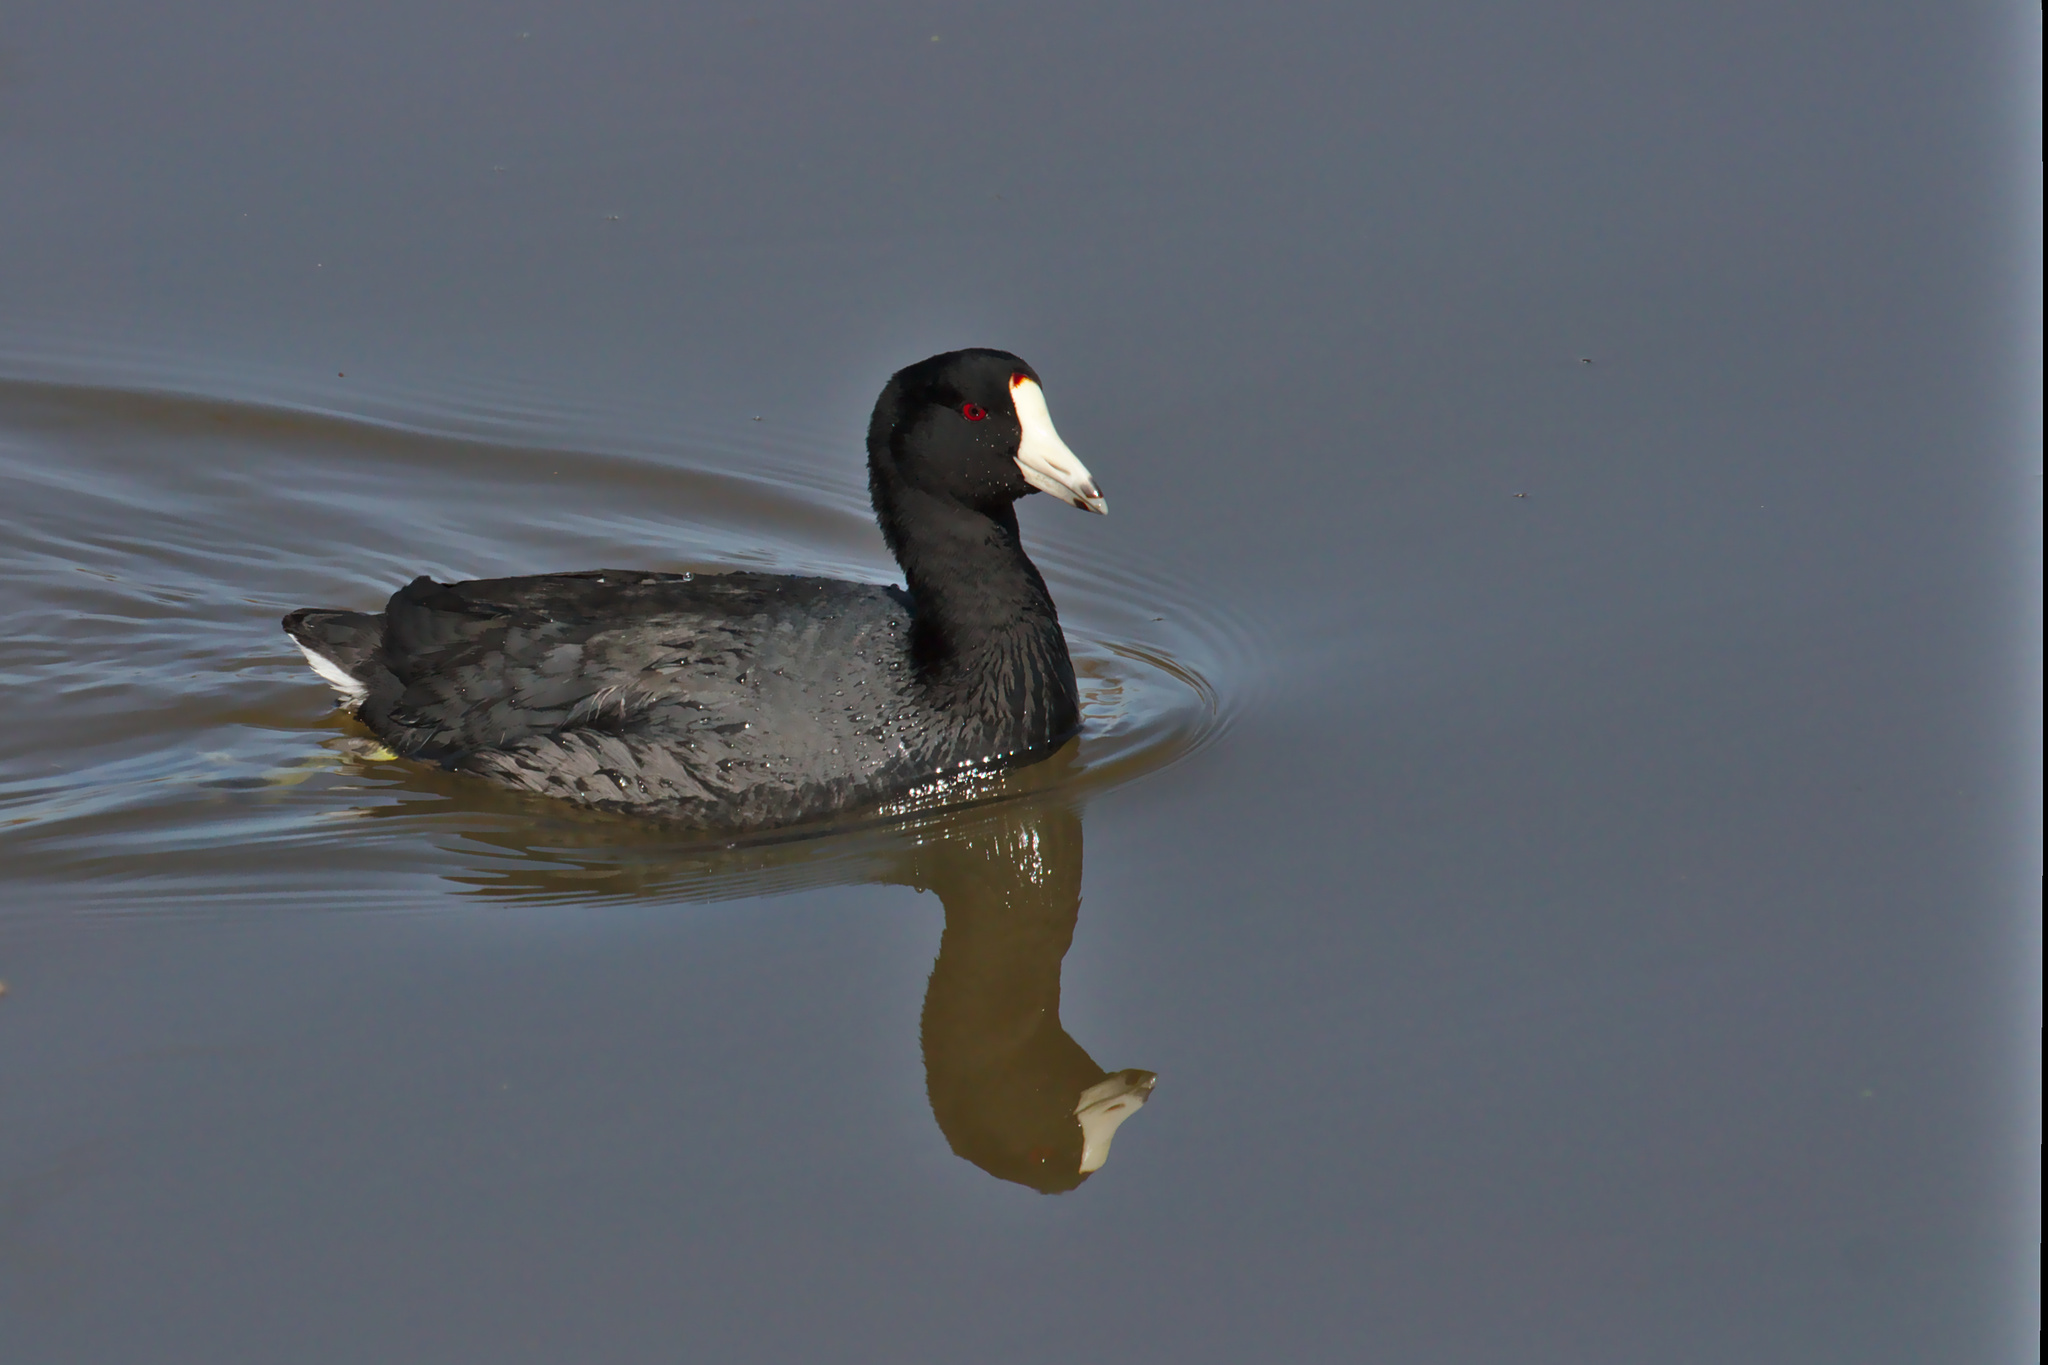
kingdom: Animalia
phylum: Chordata
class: Aves
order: Gruiformes
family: Rallidae
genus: Fulica
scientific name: Fulica americana
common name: American coot
